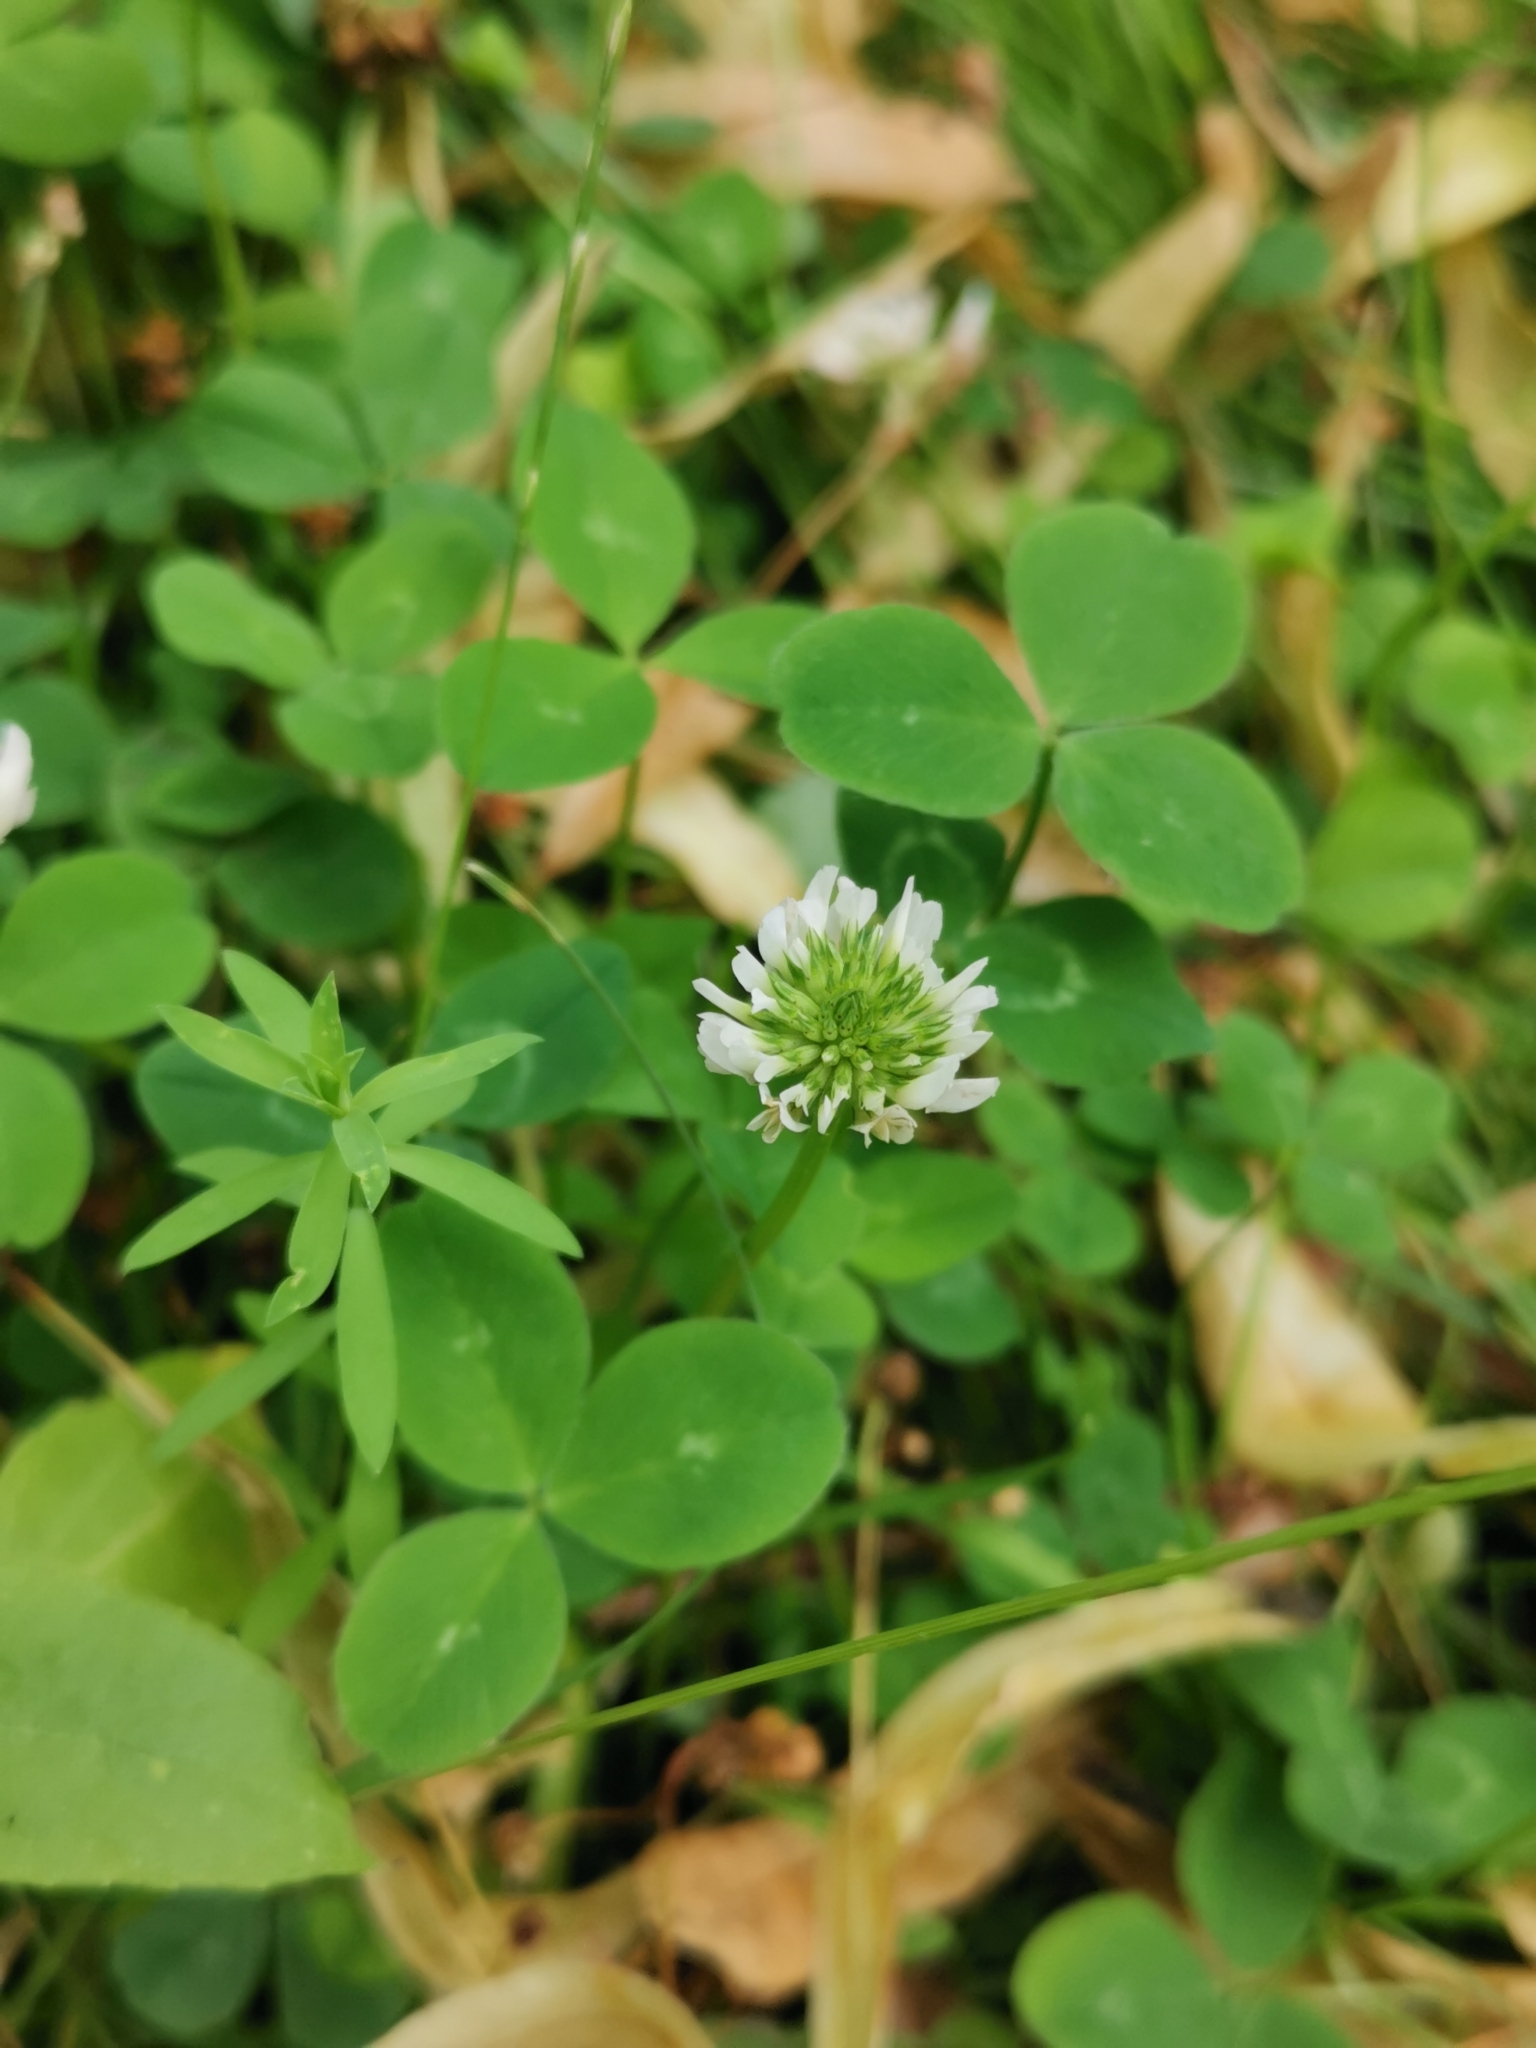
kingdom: Plantae
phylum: Tracheophyta
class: Magnoliopsida
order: Fabales
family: Fabaceae
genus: Trifolium
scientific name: Trifolium repens
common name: White clover
